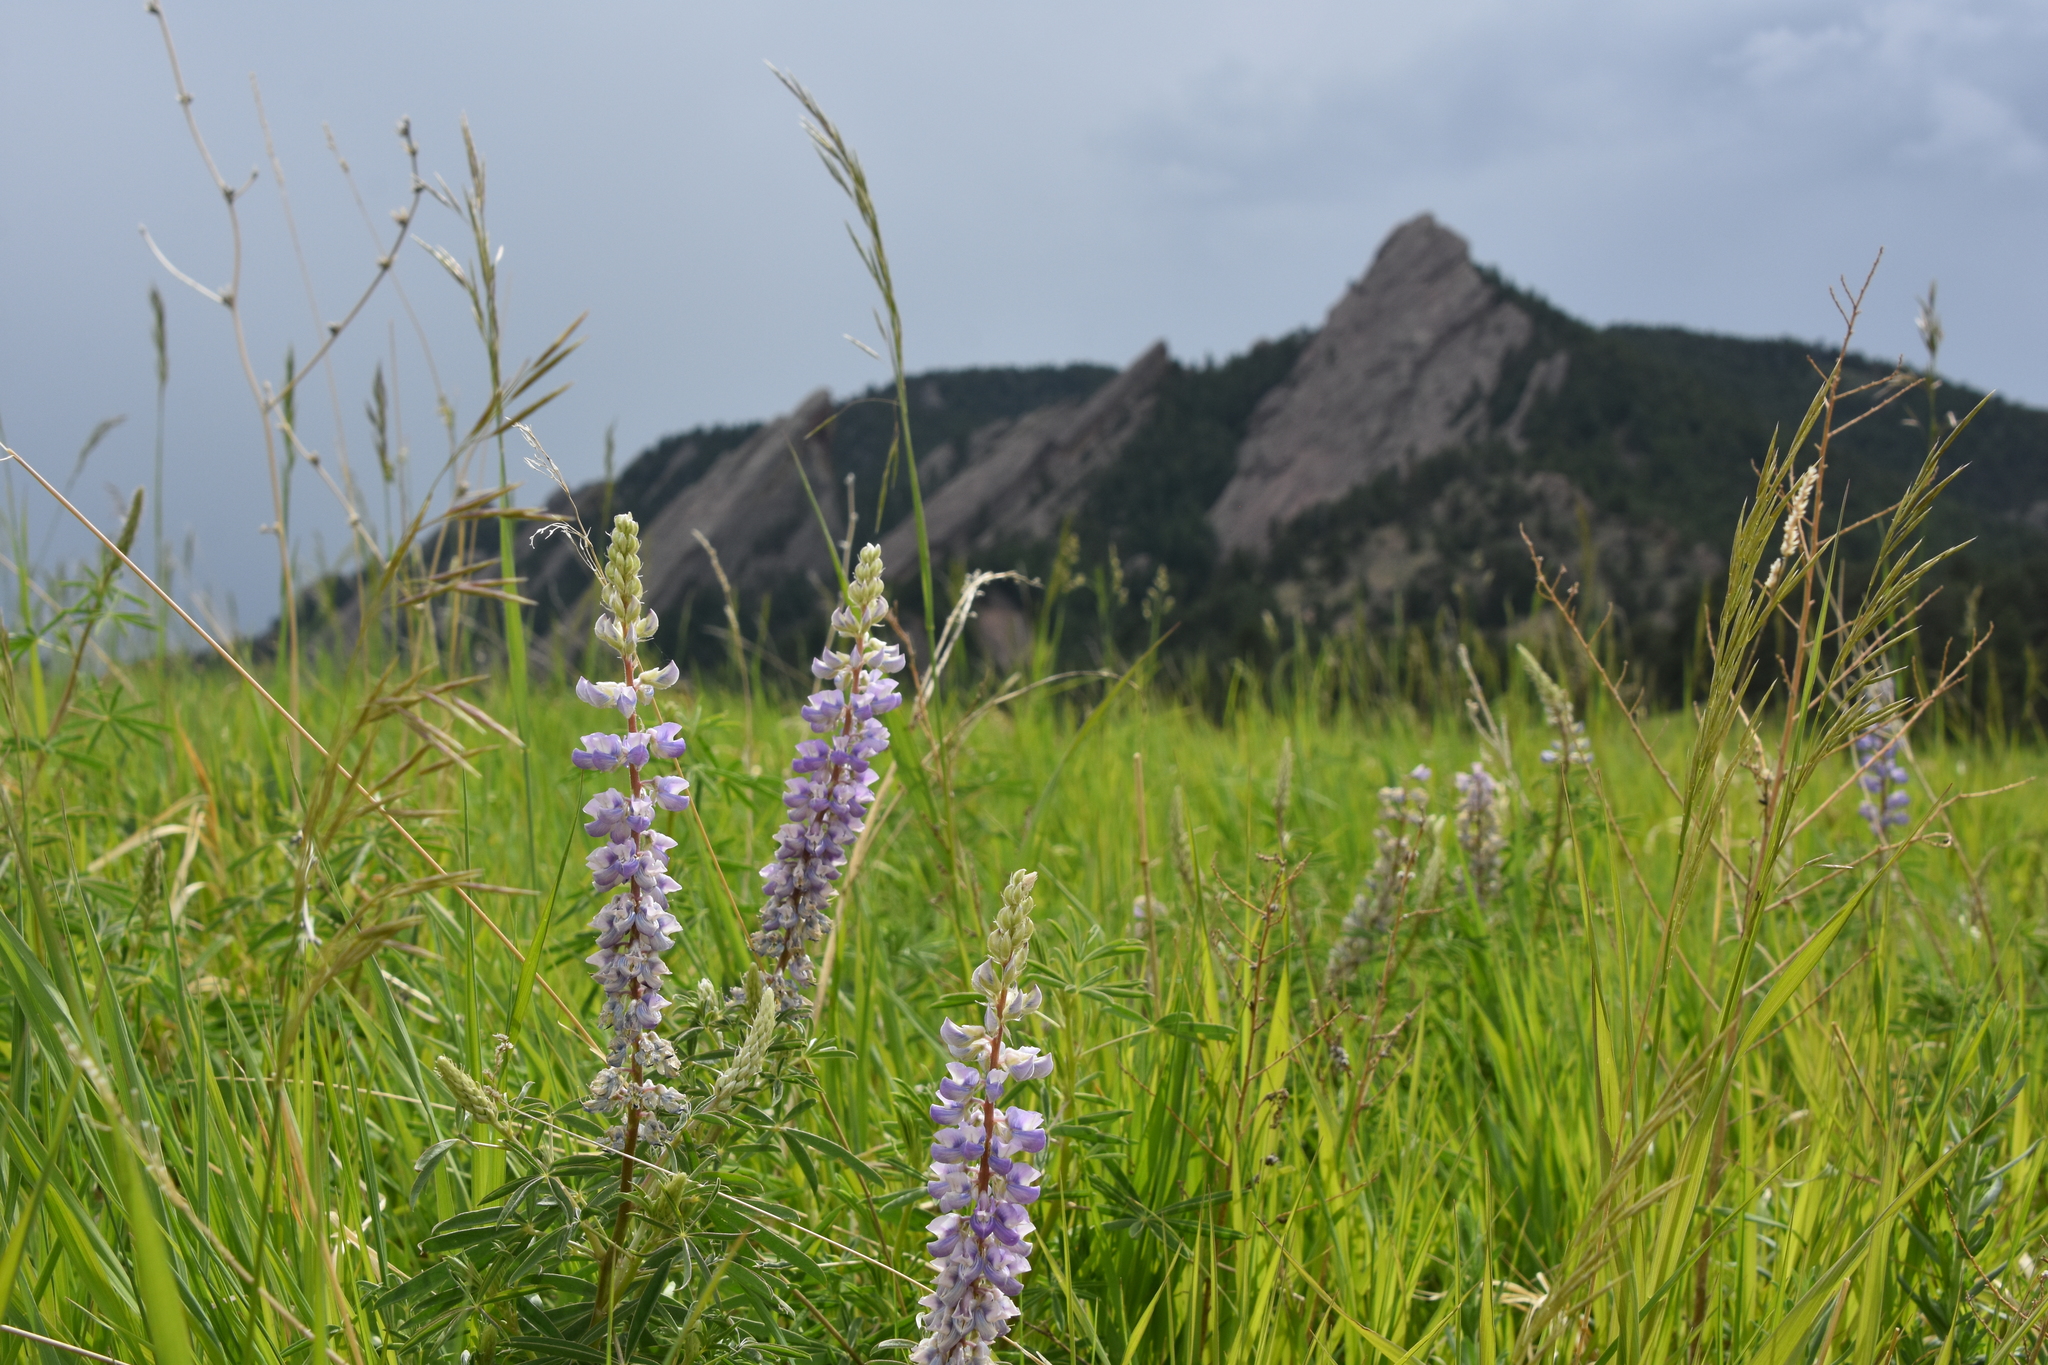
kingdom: Plantae
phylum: Tracheophyta
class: Magnoliopsida
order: Fabales
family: Fabaceae
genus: Lupinus
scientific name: Lupinus argenteus
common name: Silvery lupine
